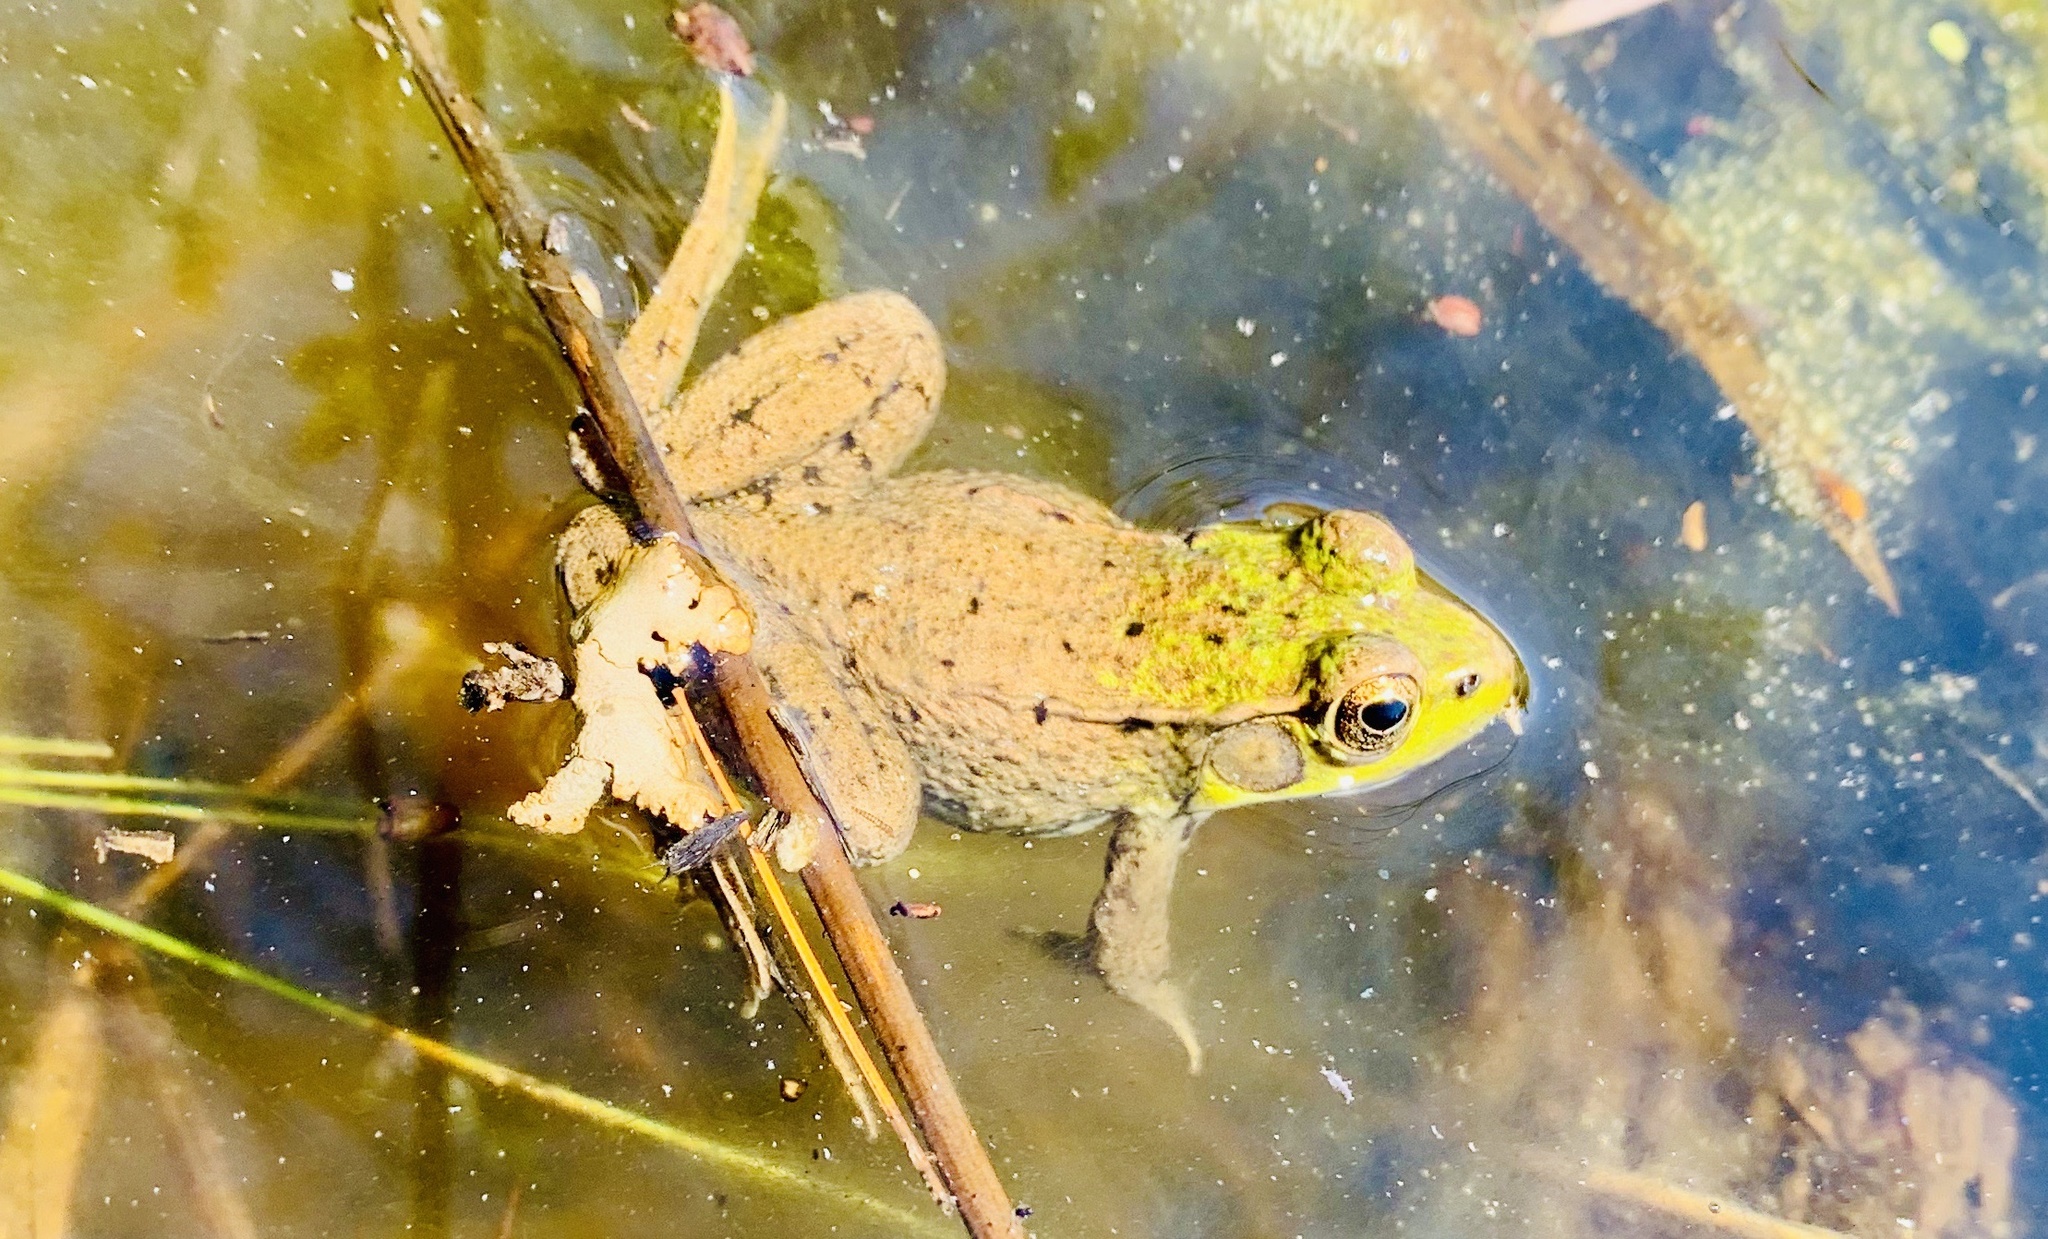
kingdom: Animalia
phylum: Chordata
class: Amphibia
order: Anura
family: Ranidae
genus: Lithobates
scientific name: Lithobates clamitans
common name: Green frog
